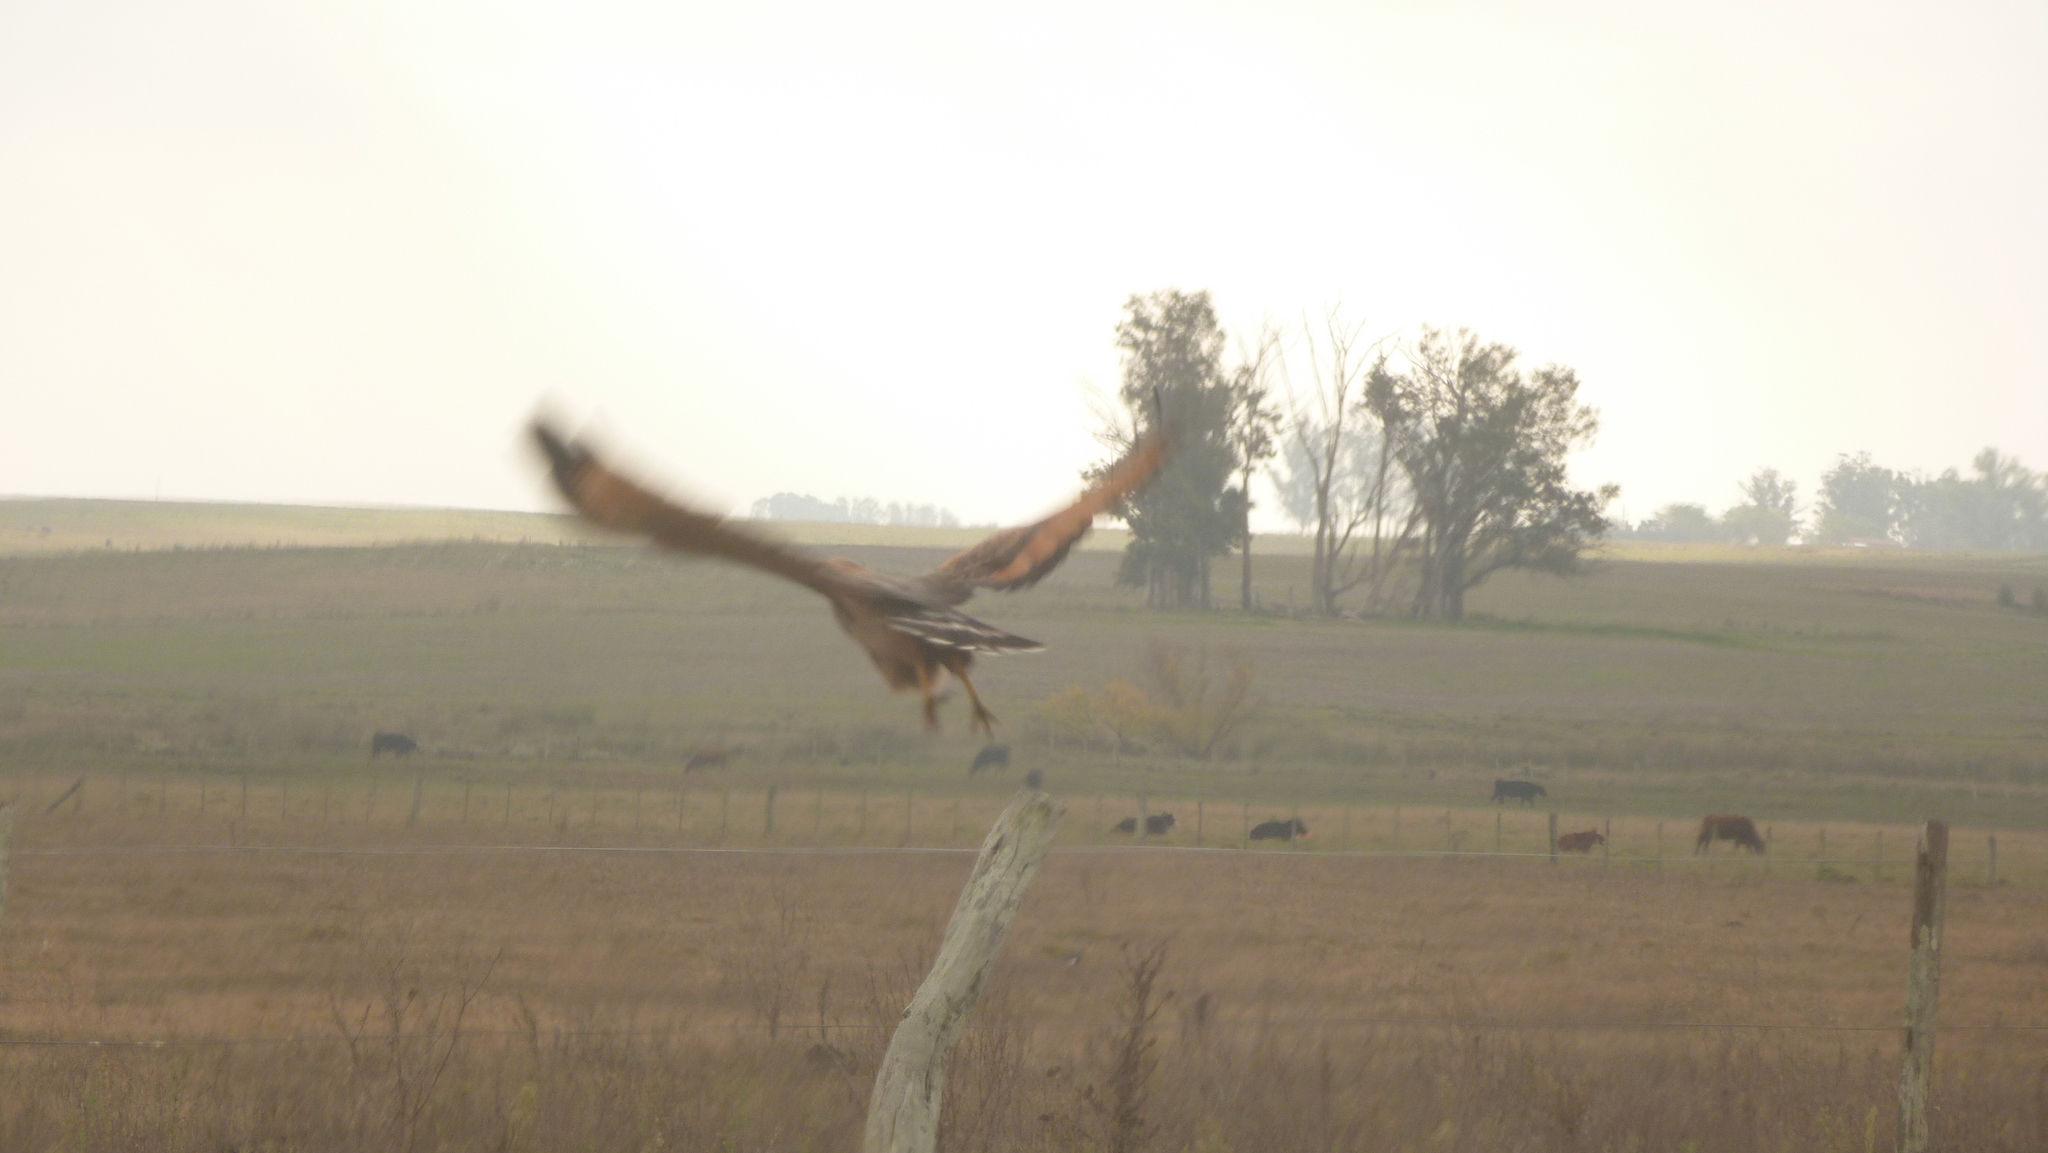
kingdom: Animalia
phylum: Chordata
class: Aves
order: Accipitriformes
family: Accipitridae
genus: Buteogallus
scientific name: Buteogallus meridionalis
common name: Savanna hawk
